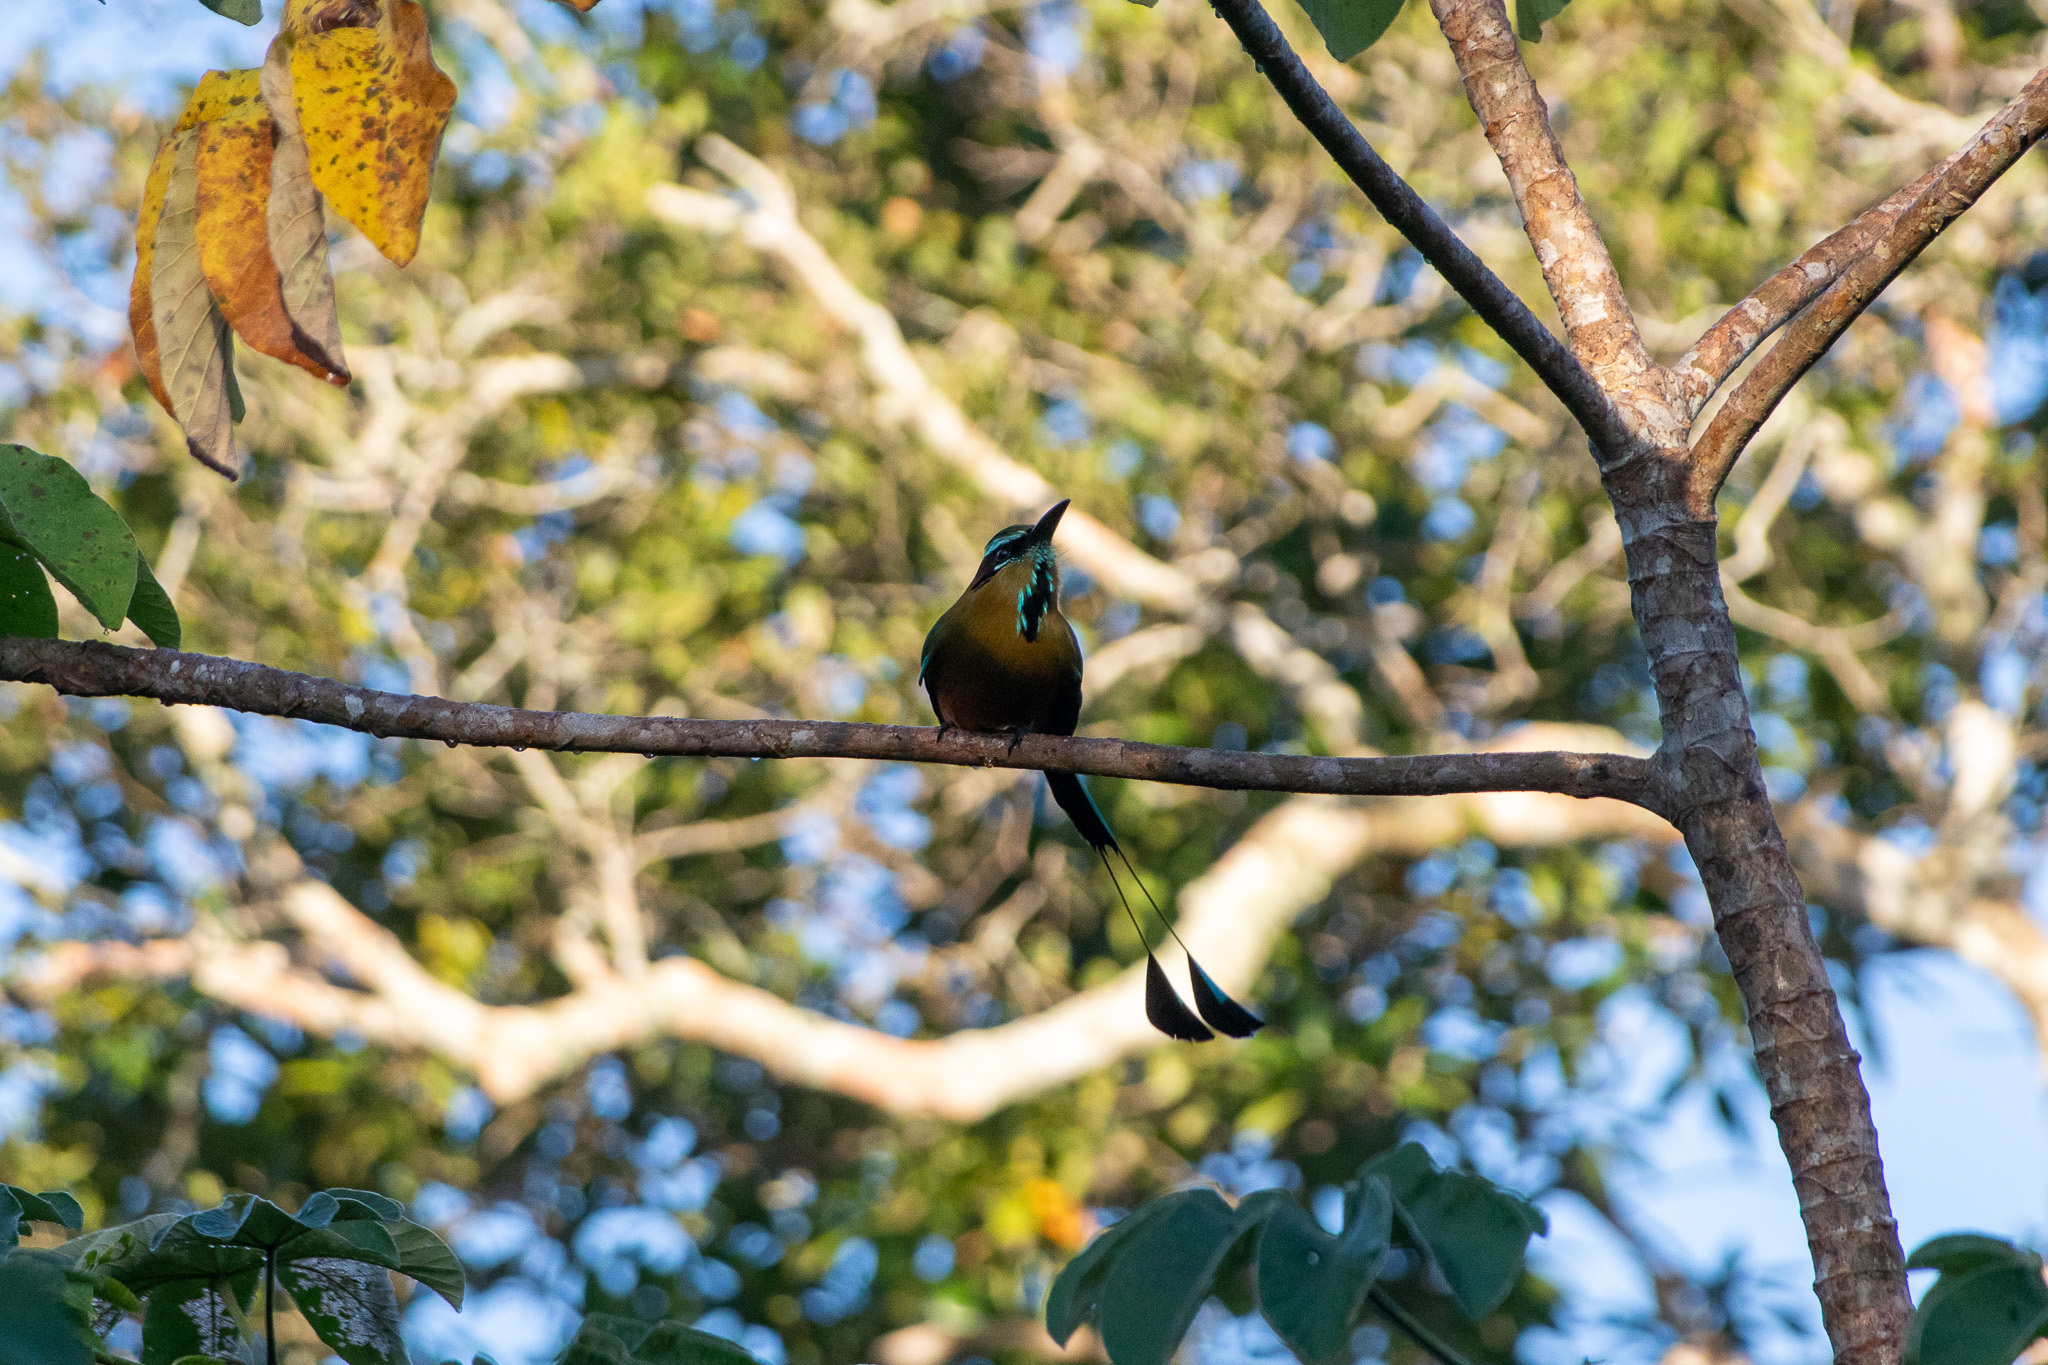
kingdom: Animalia
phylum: Chordata
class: Aves
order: Coraciiformes
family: Momotidae
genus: Eumomota
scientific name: Eumomota superciliosa
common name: Turquoise-browed motmot
